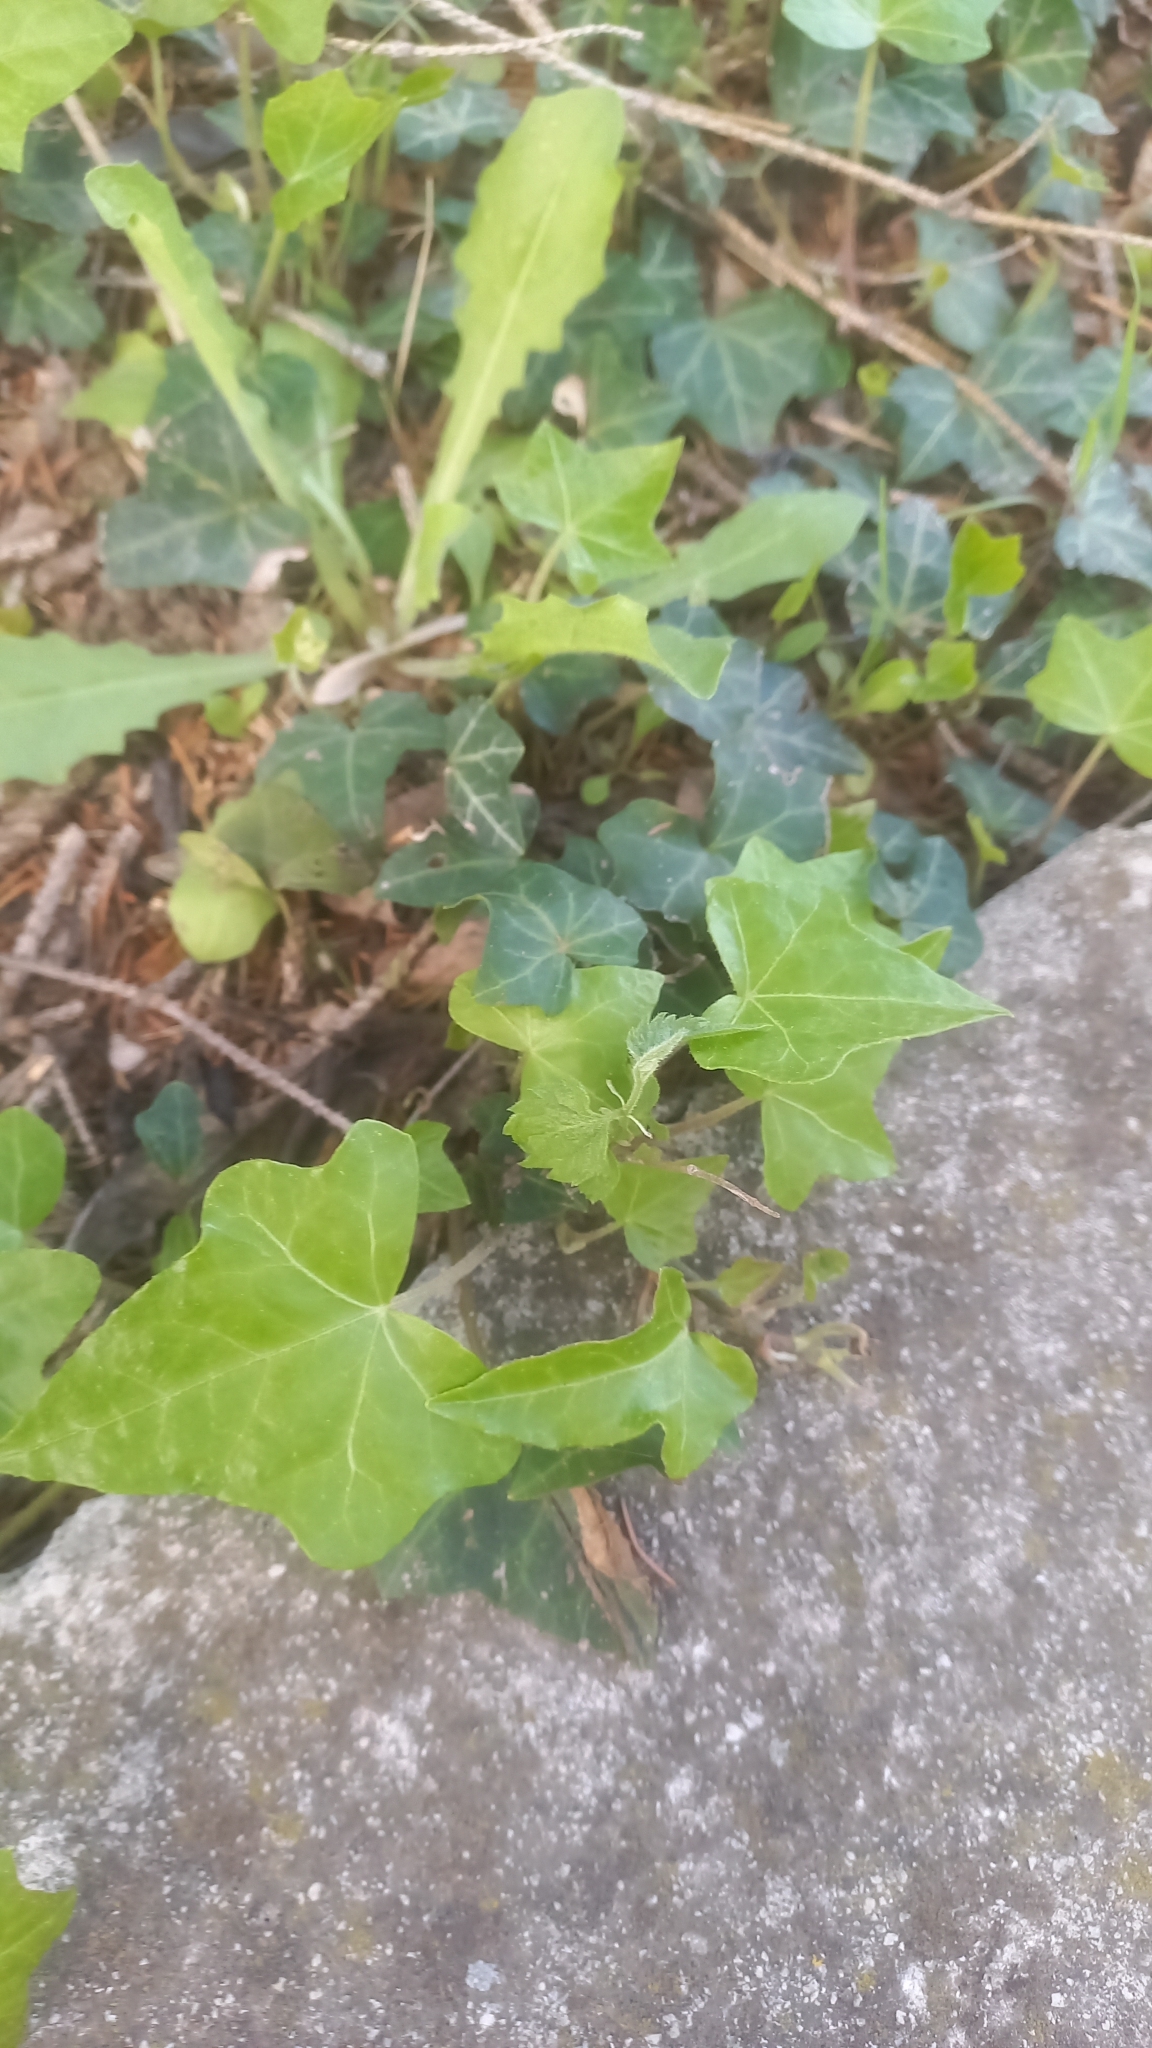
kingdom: Plantae
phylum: Tracheophyta
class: Magnoliopsida
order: Apiales
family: Araliaceae
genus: Hedera
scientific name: Hedera helix
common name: Ivy
